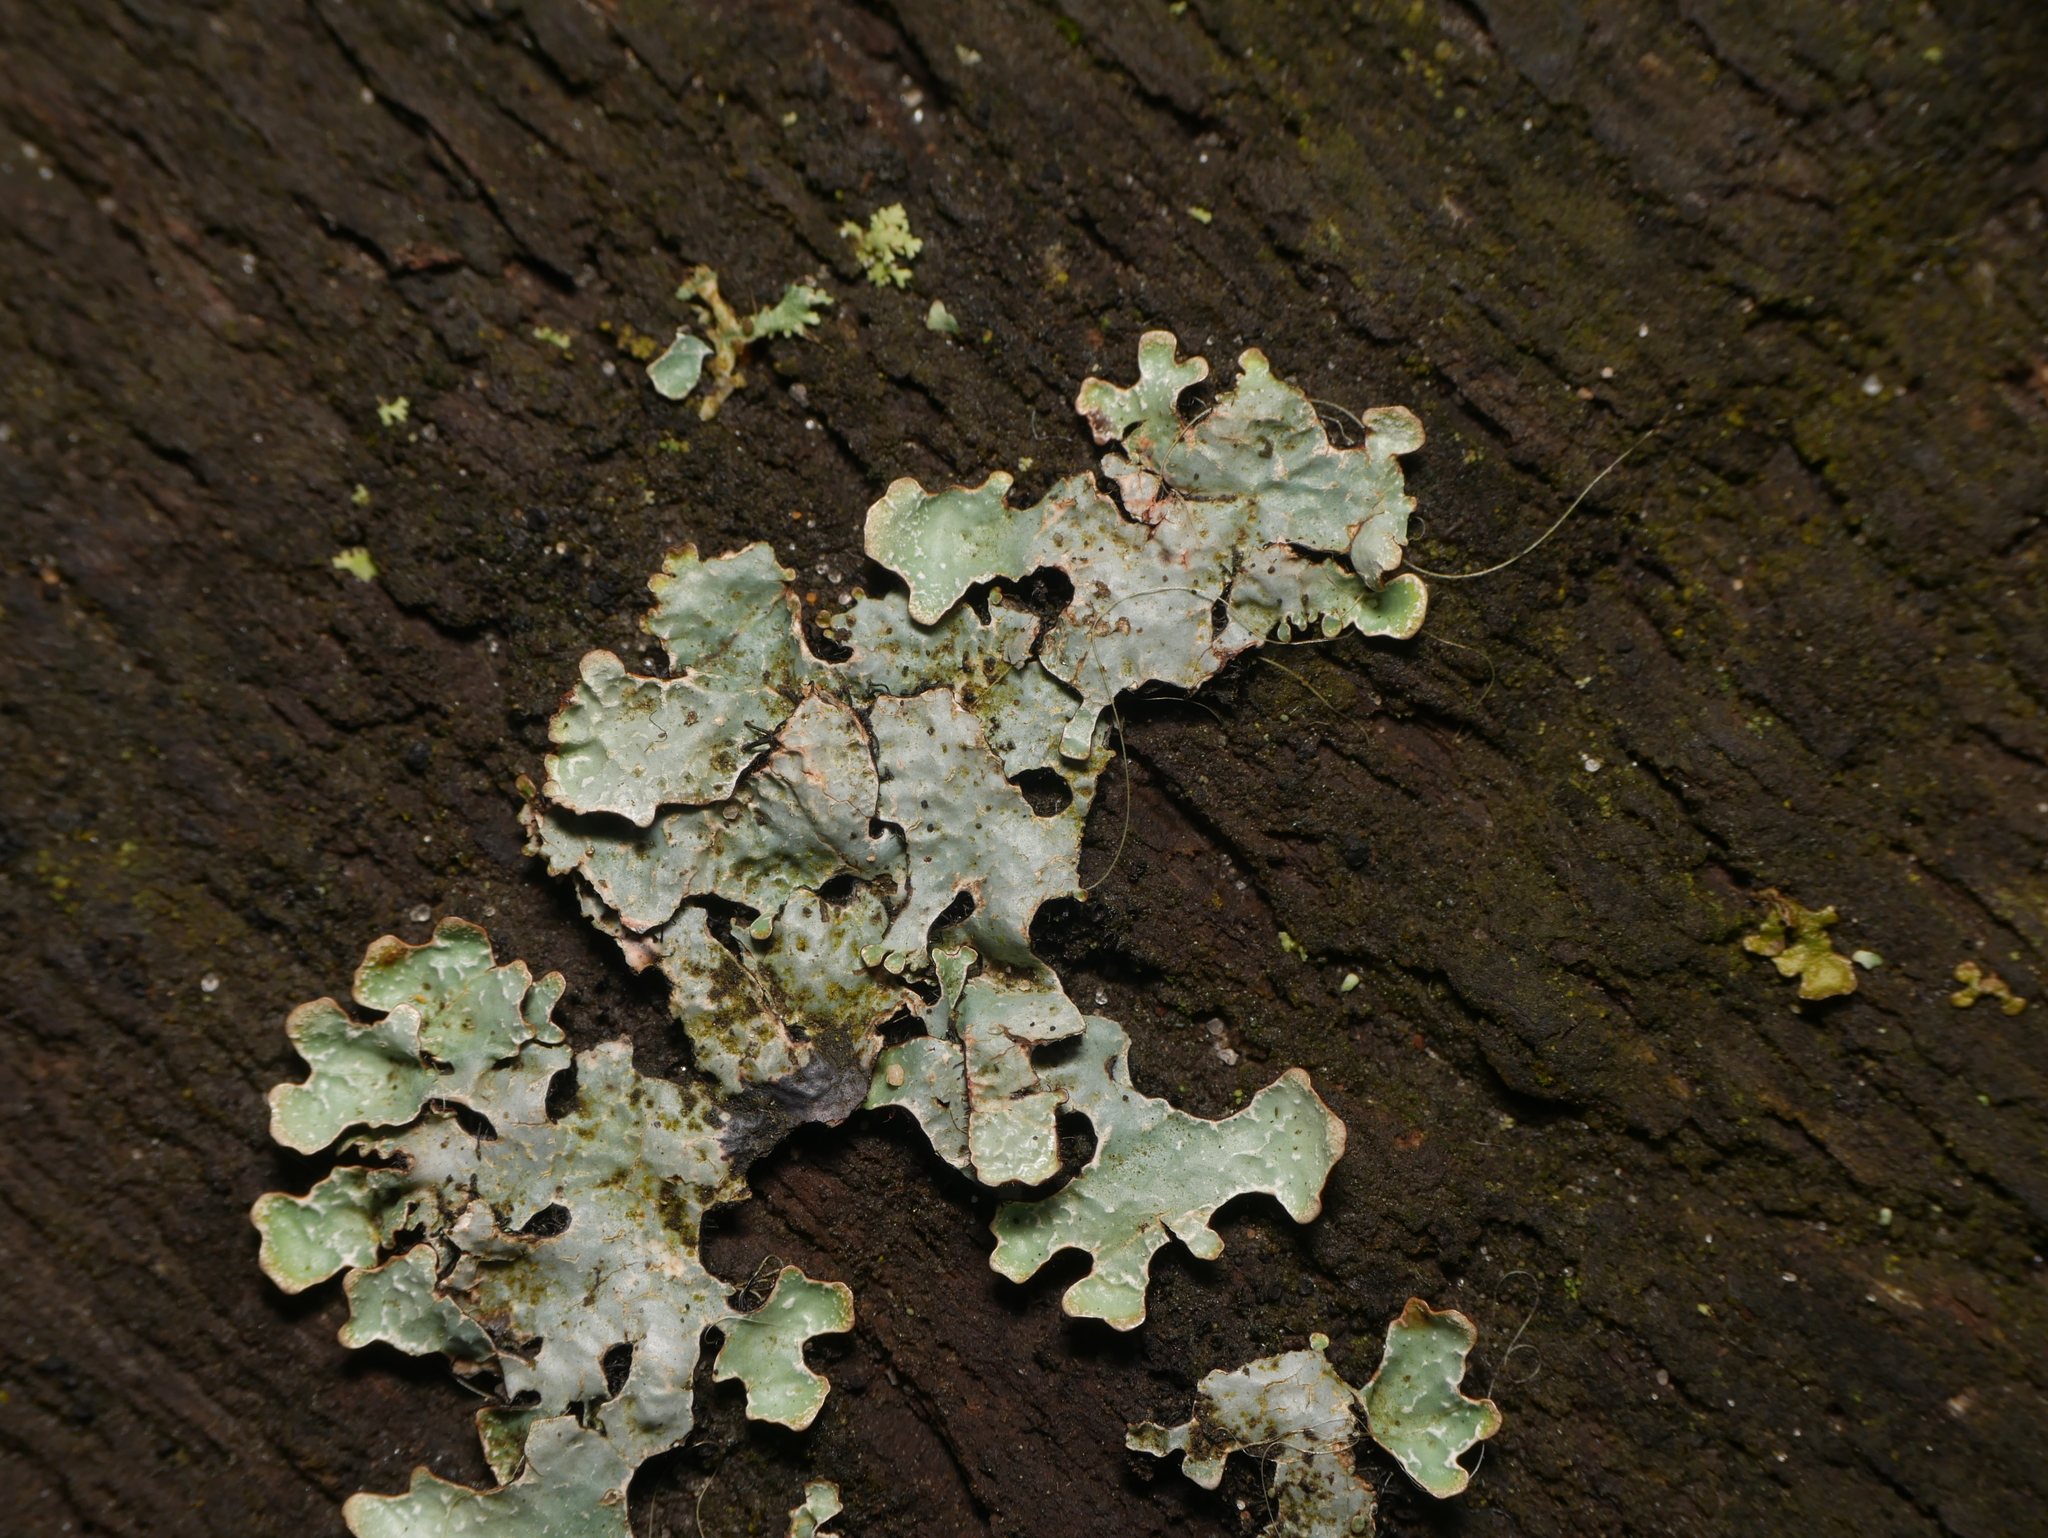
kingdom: Fungi
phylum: Ascomycota
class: Lecanoromycetes
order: Lecanorales
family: Parmeliaceae
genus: Parmelia
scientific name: Parmelia sulcata
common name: Netted shield lichen
